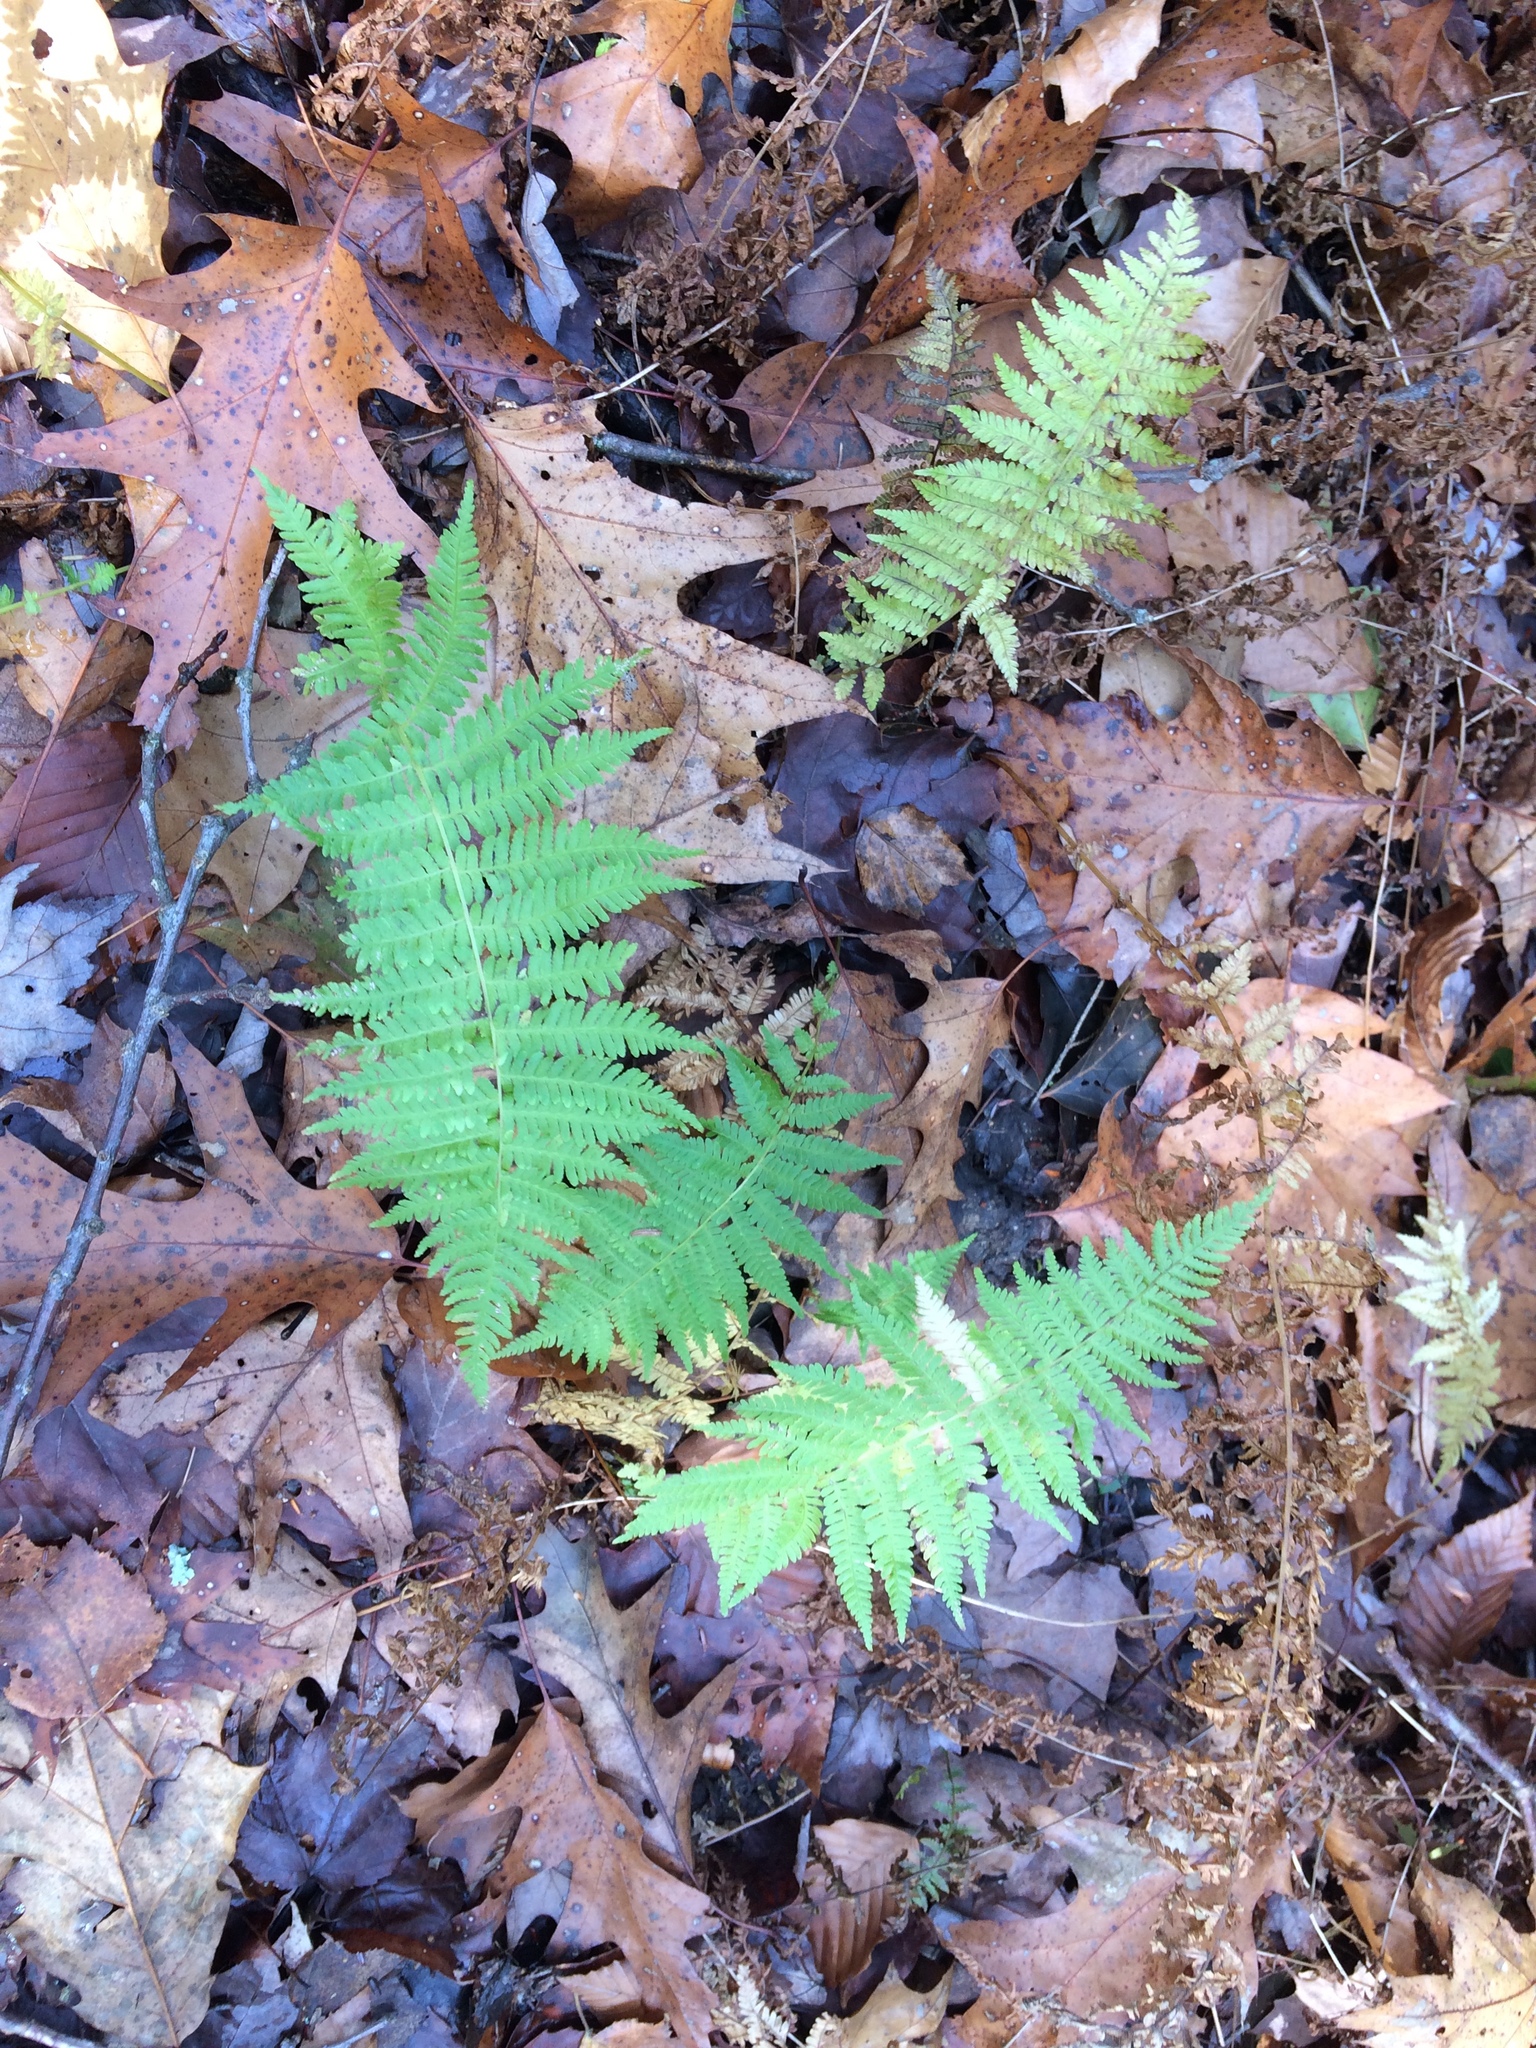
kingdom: Plantae
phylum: Tracheophyta
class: Polypodiopsida
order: Polypodiales
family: Thelypteridaceae
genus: Amauropelta
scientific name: Amauropelta noveboracensis
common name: New york fern
